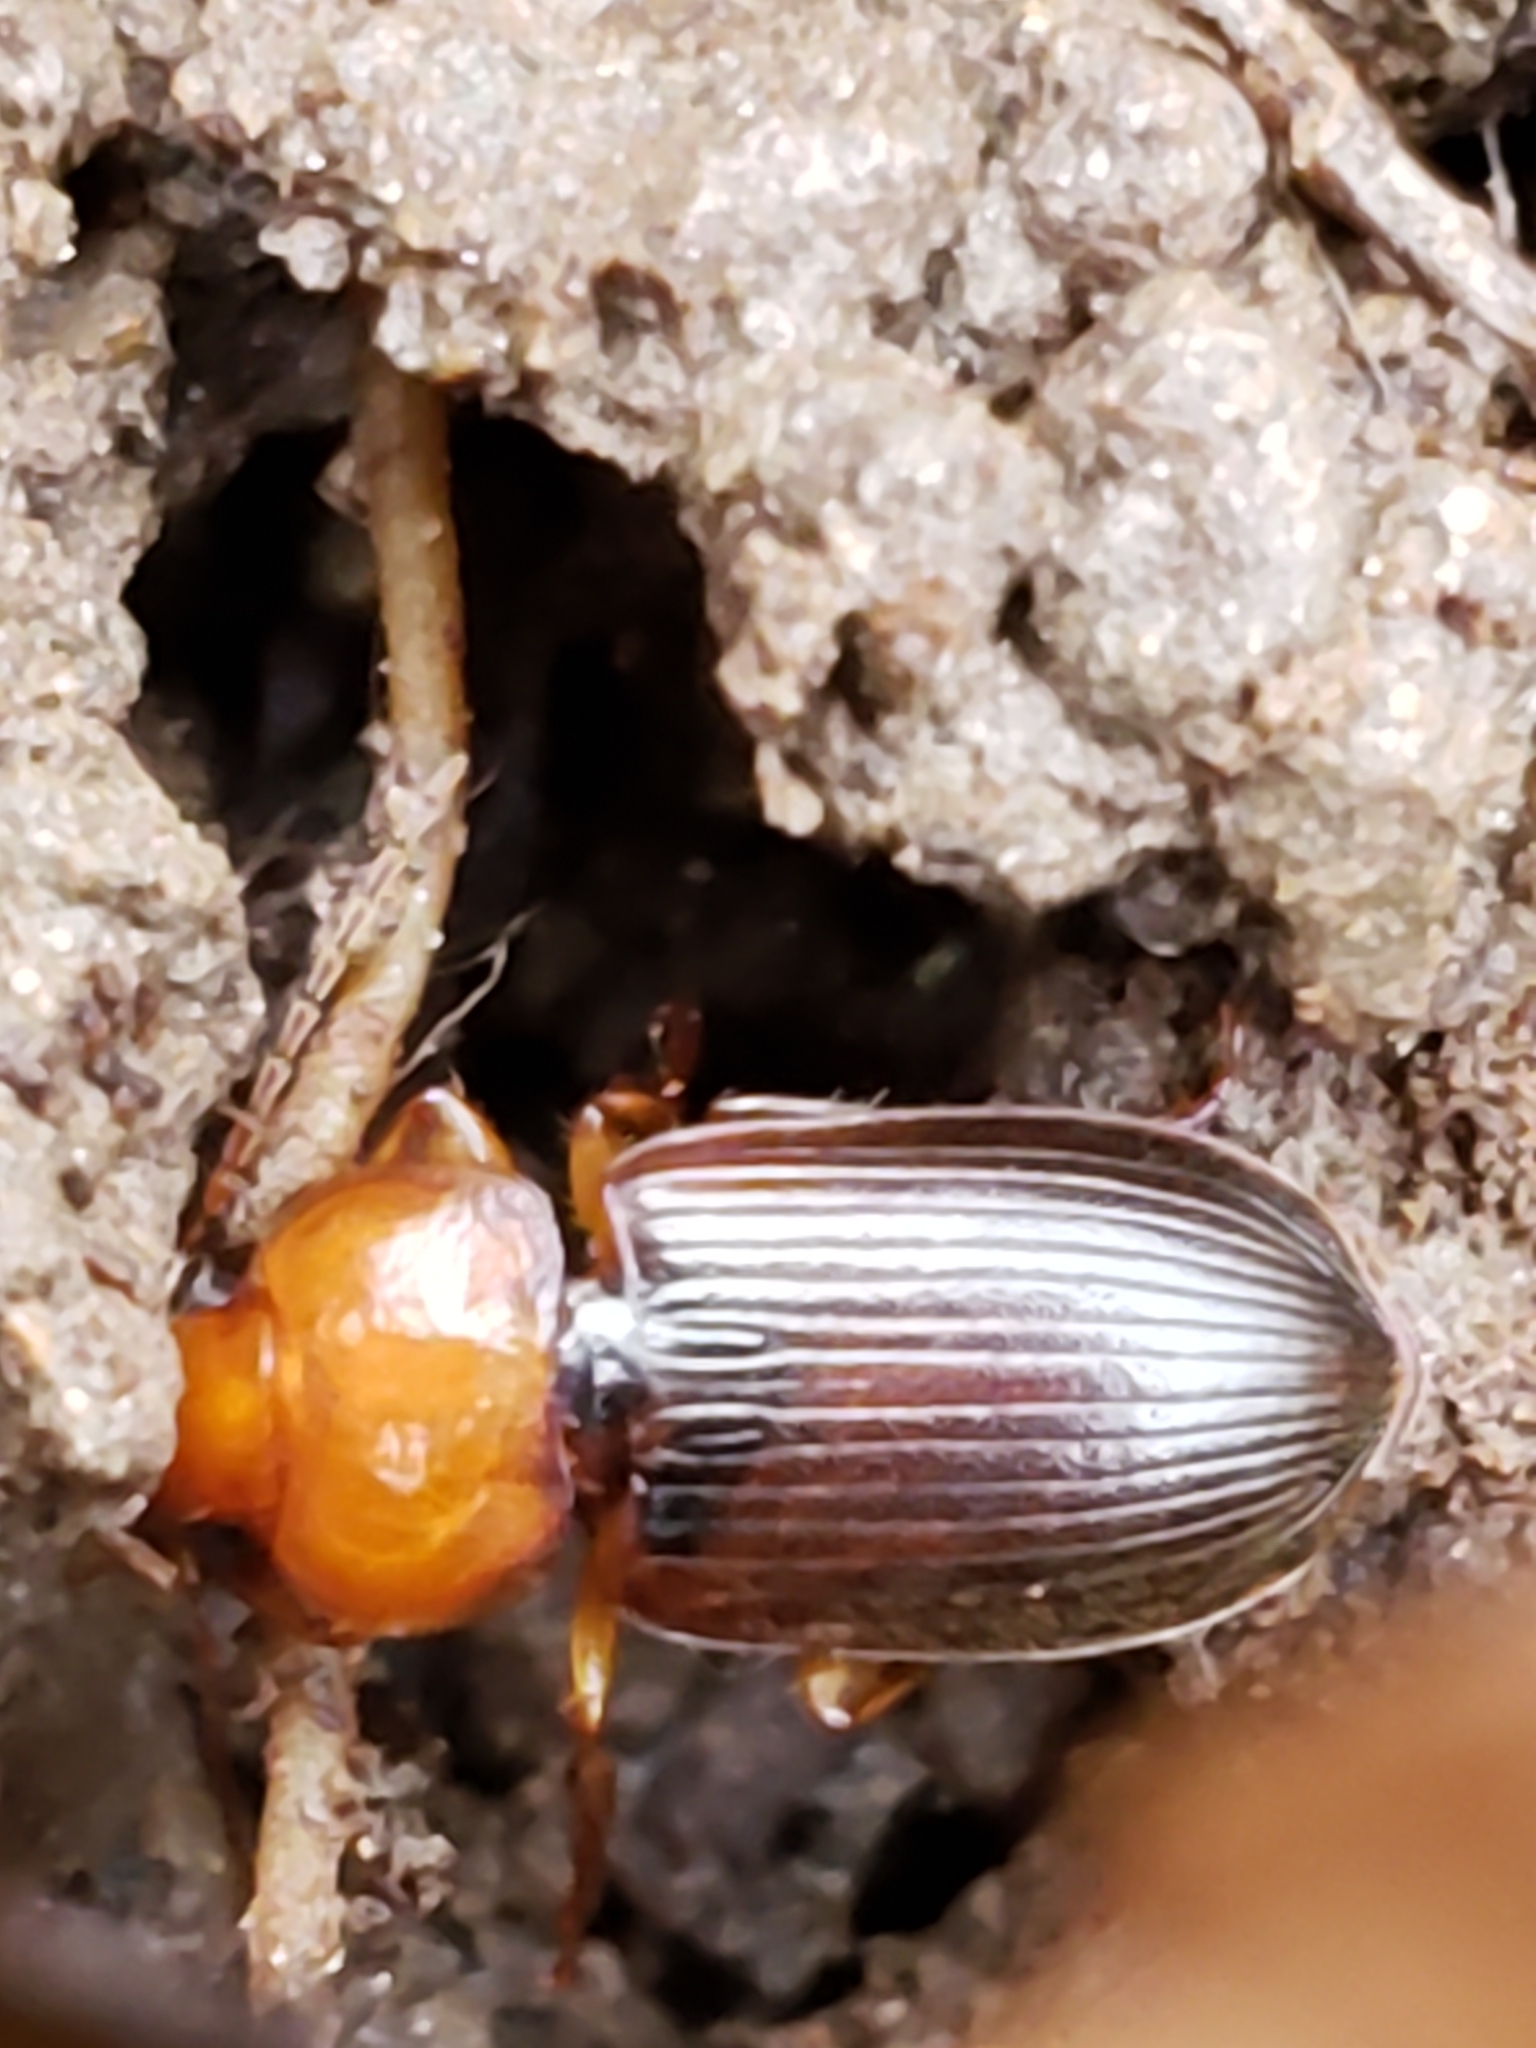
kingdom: Animalia
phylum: Arthropoda
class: Insecta
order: Coleoptera
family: Carabidae
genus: Amphasia
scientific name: Amphasia interstitialis
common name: Red-headed ground beetle
